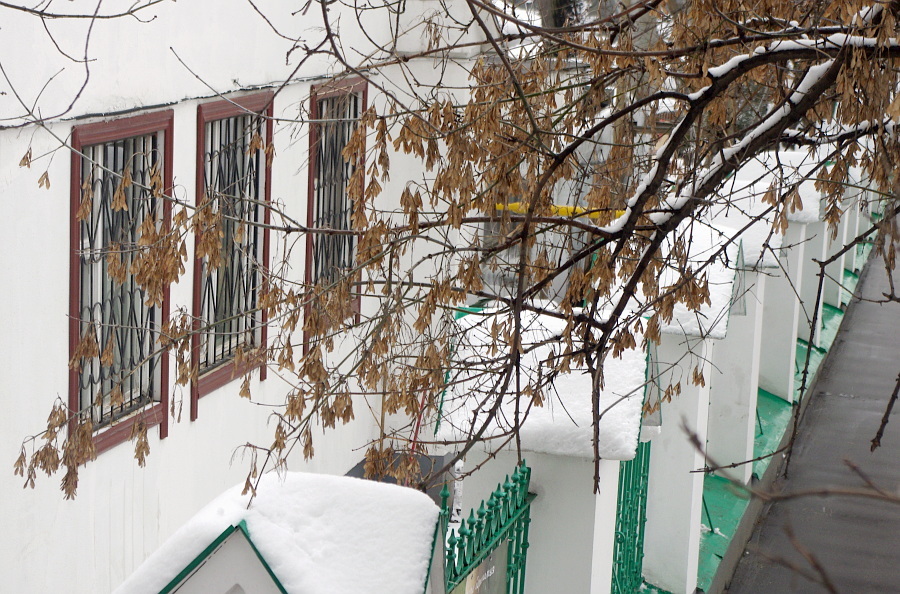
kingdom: Plantae
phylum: Tracheophyta
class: Magnoliopsida
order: Sapindales
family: Sapindaceae
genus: Acer
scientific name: Acer negundo
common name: Ashleaf maple
